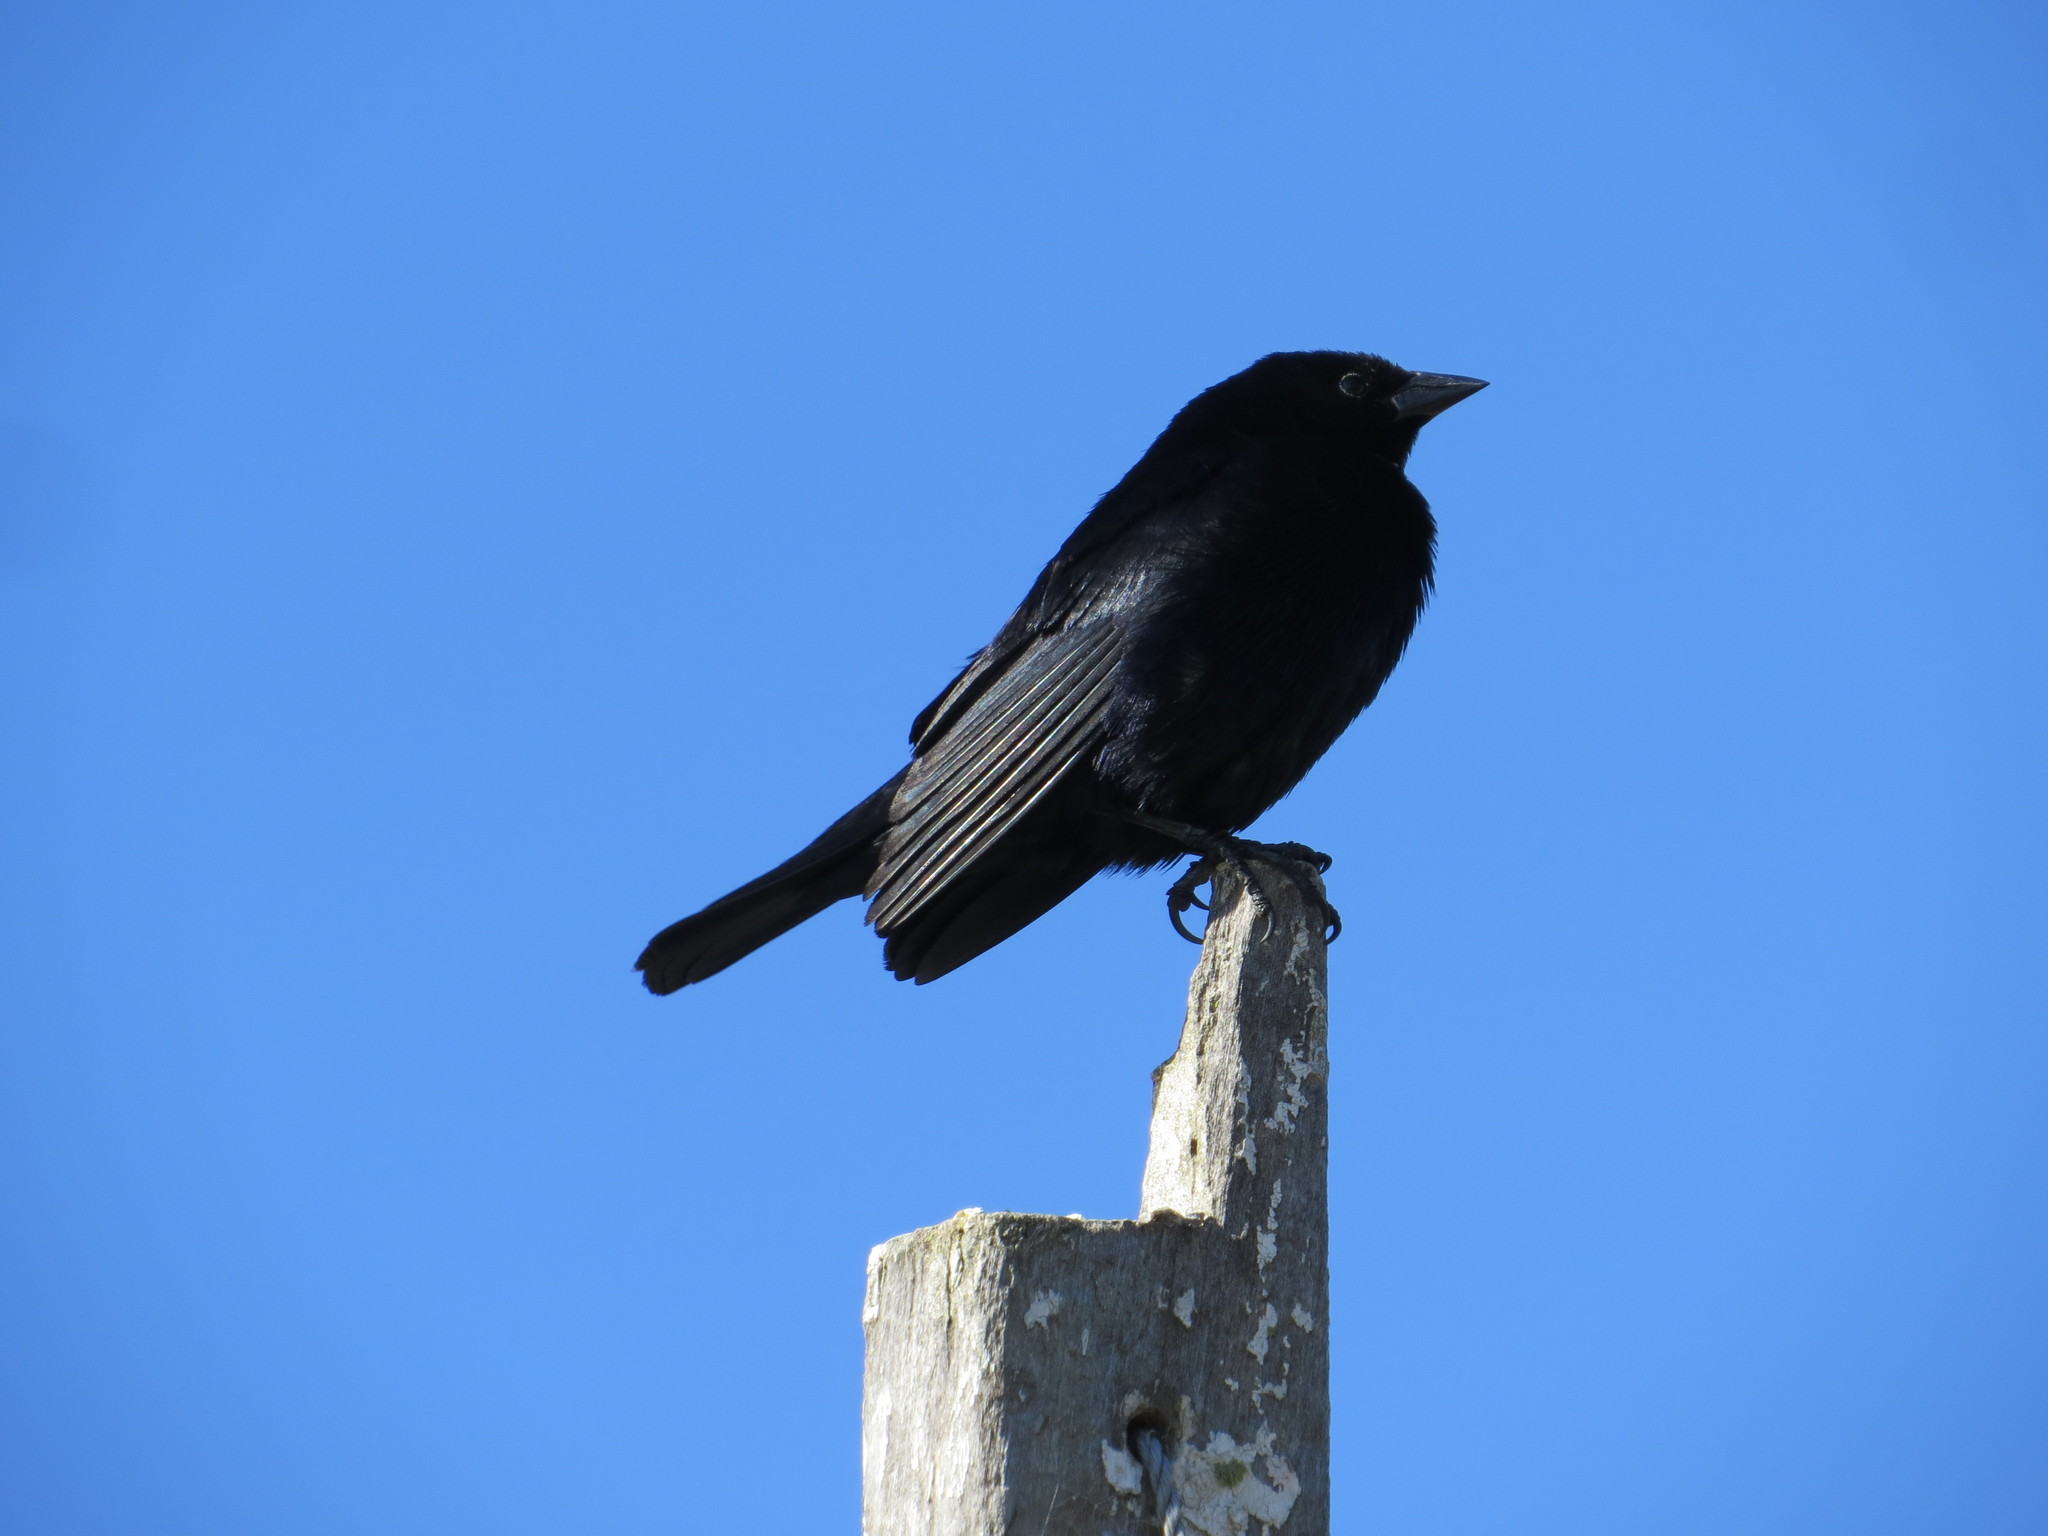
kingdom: Animalia
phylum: Chordata
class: Aves
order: Passeriformes
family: Icteridae
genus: Molothrus
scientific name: Molothrus bonariensis
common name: Shiny cowbird
